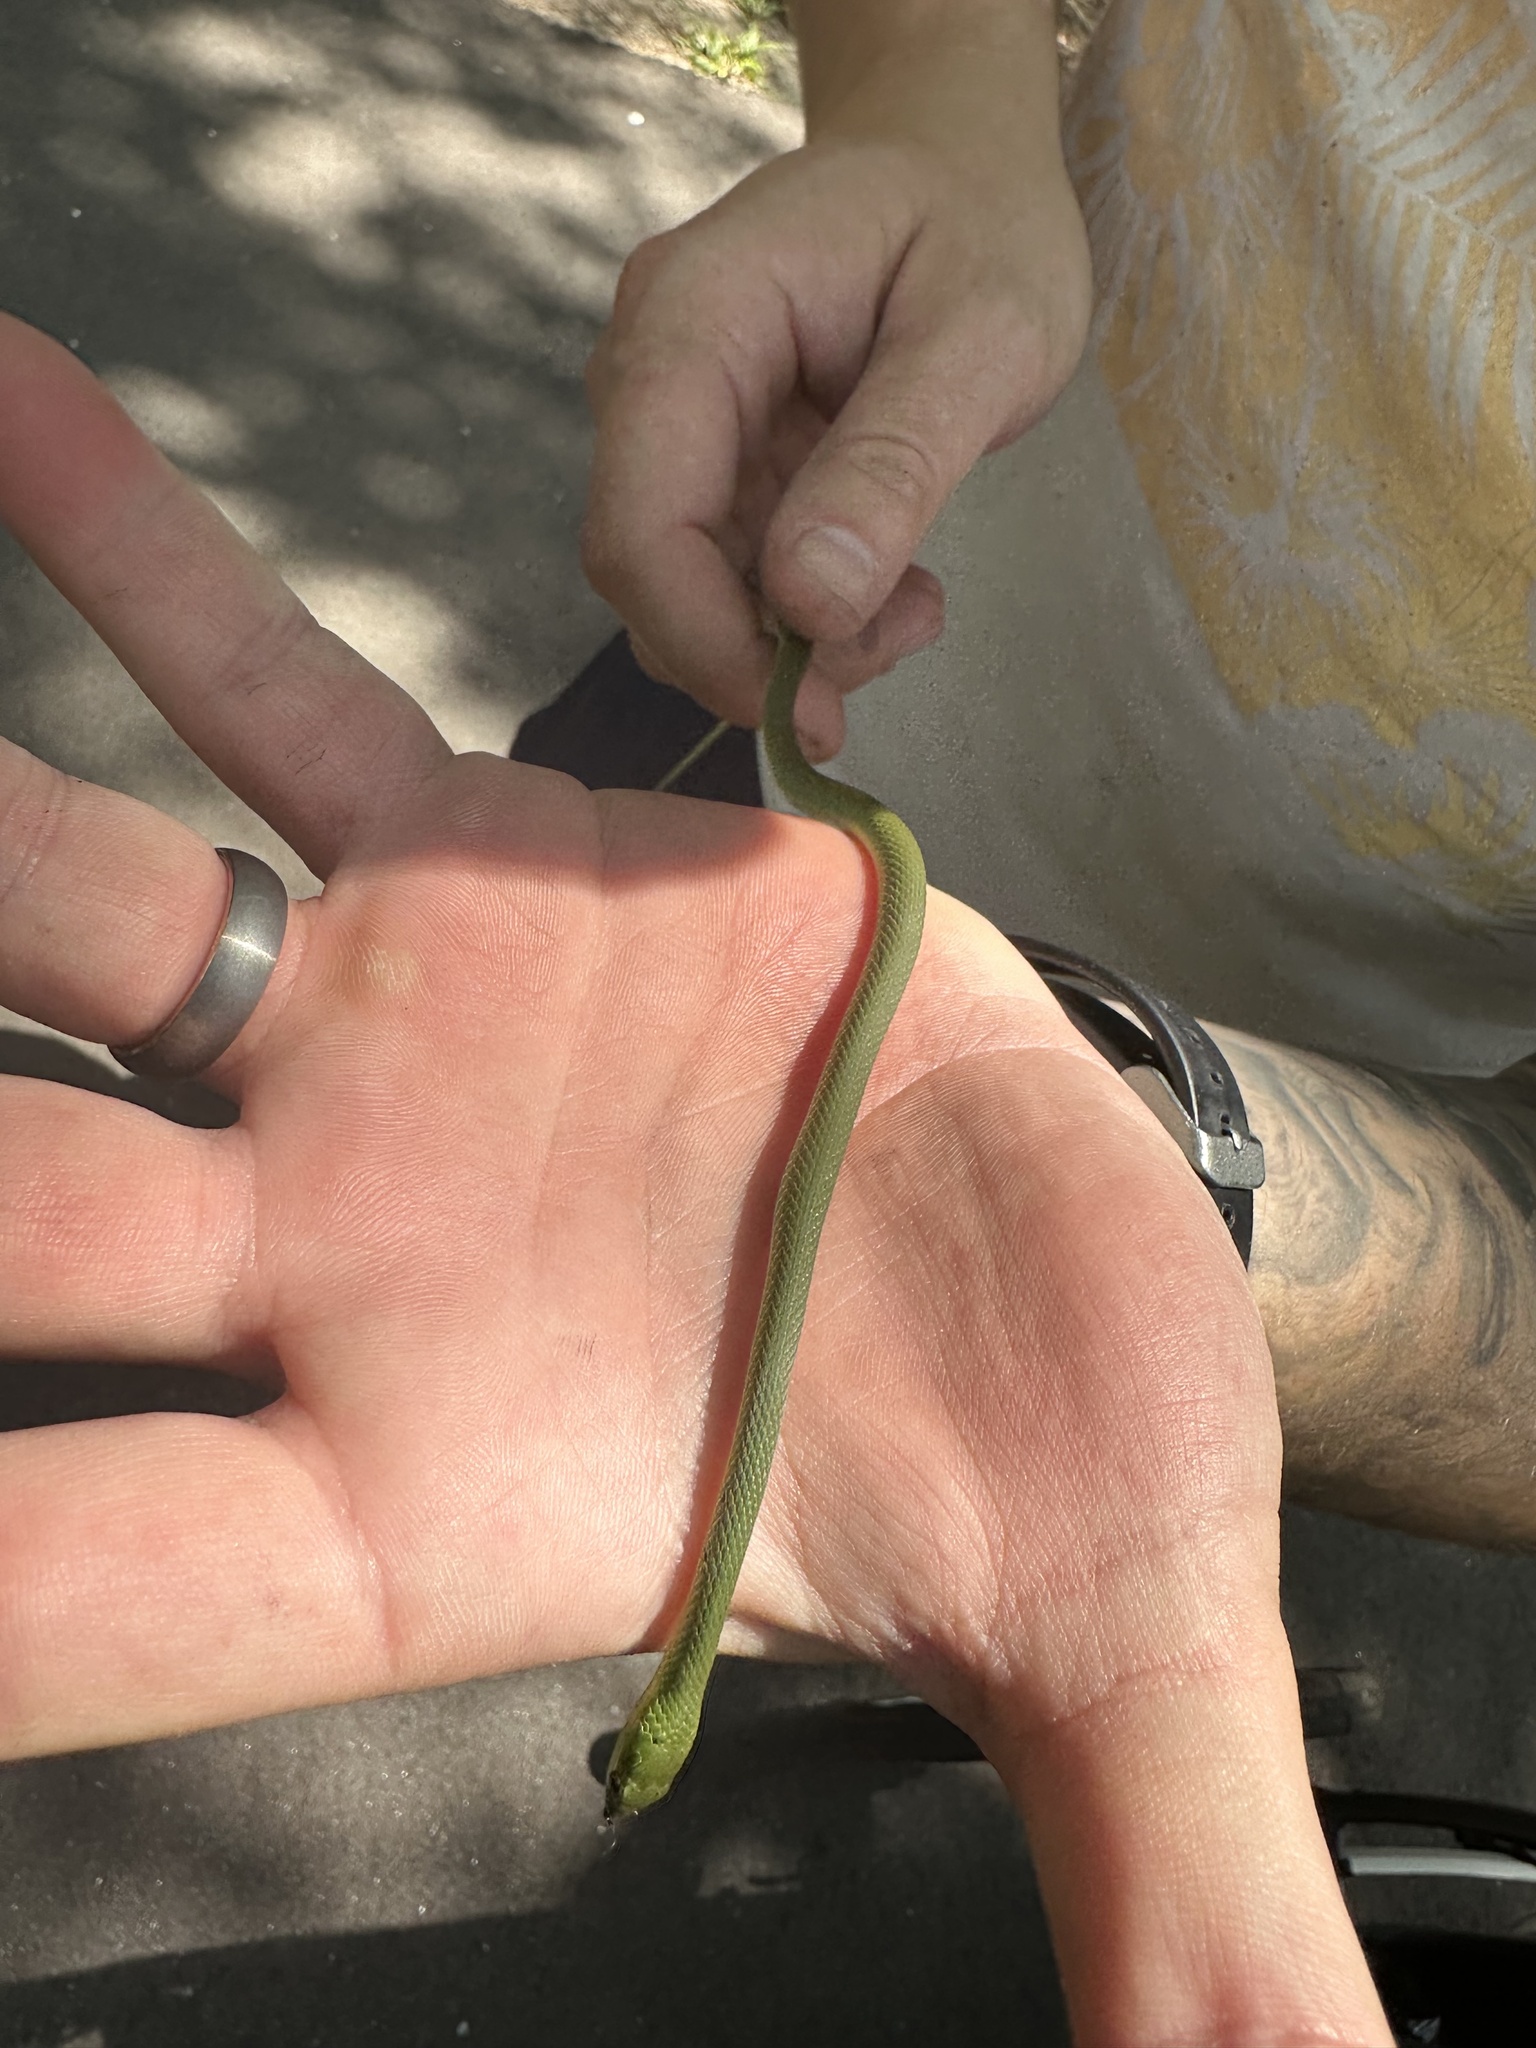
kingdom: Animalia
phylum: Chordata
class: Squamata
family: Colubridae
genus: Opheodrys
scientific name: Opheodrys aestivus
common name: Rough greensnake
